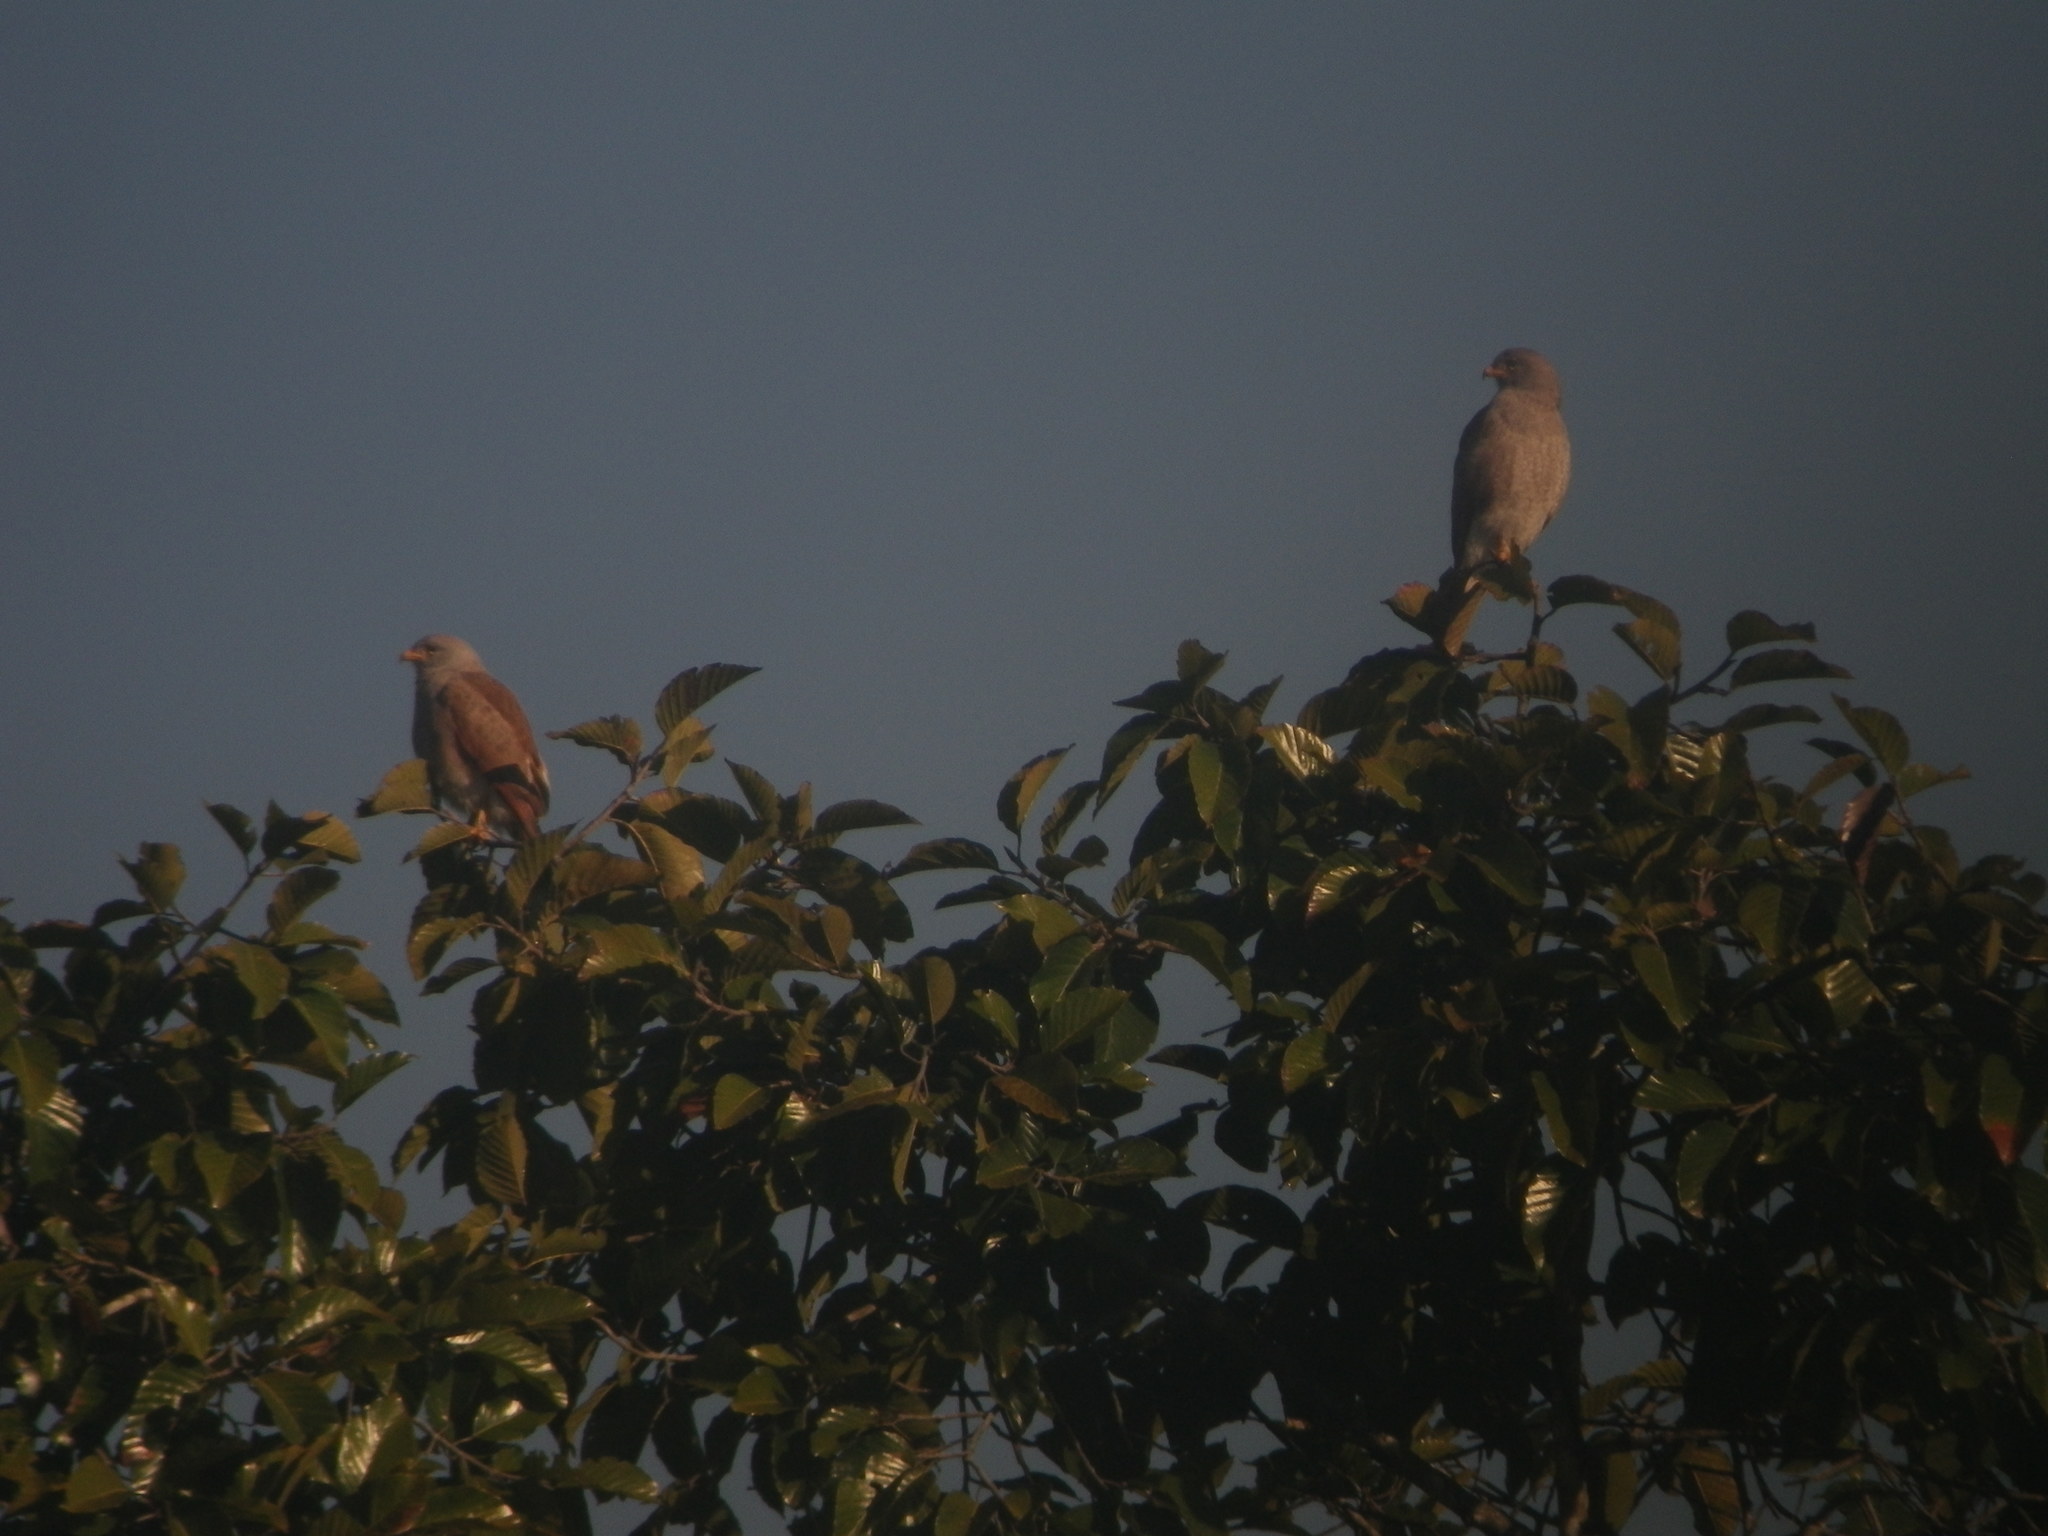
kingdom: Animalia
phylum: Chordata
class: Aves
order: Accipitriformes
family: Accipitridae
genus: Butastur
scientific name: Butastur liventer
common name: Rufous-winged buzzard
